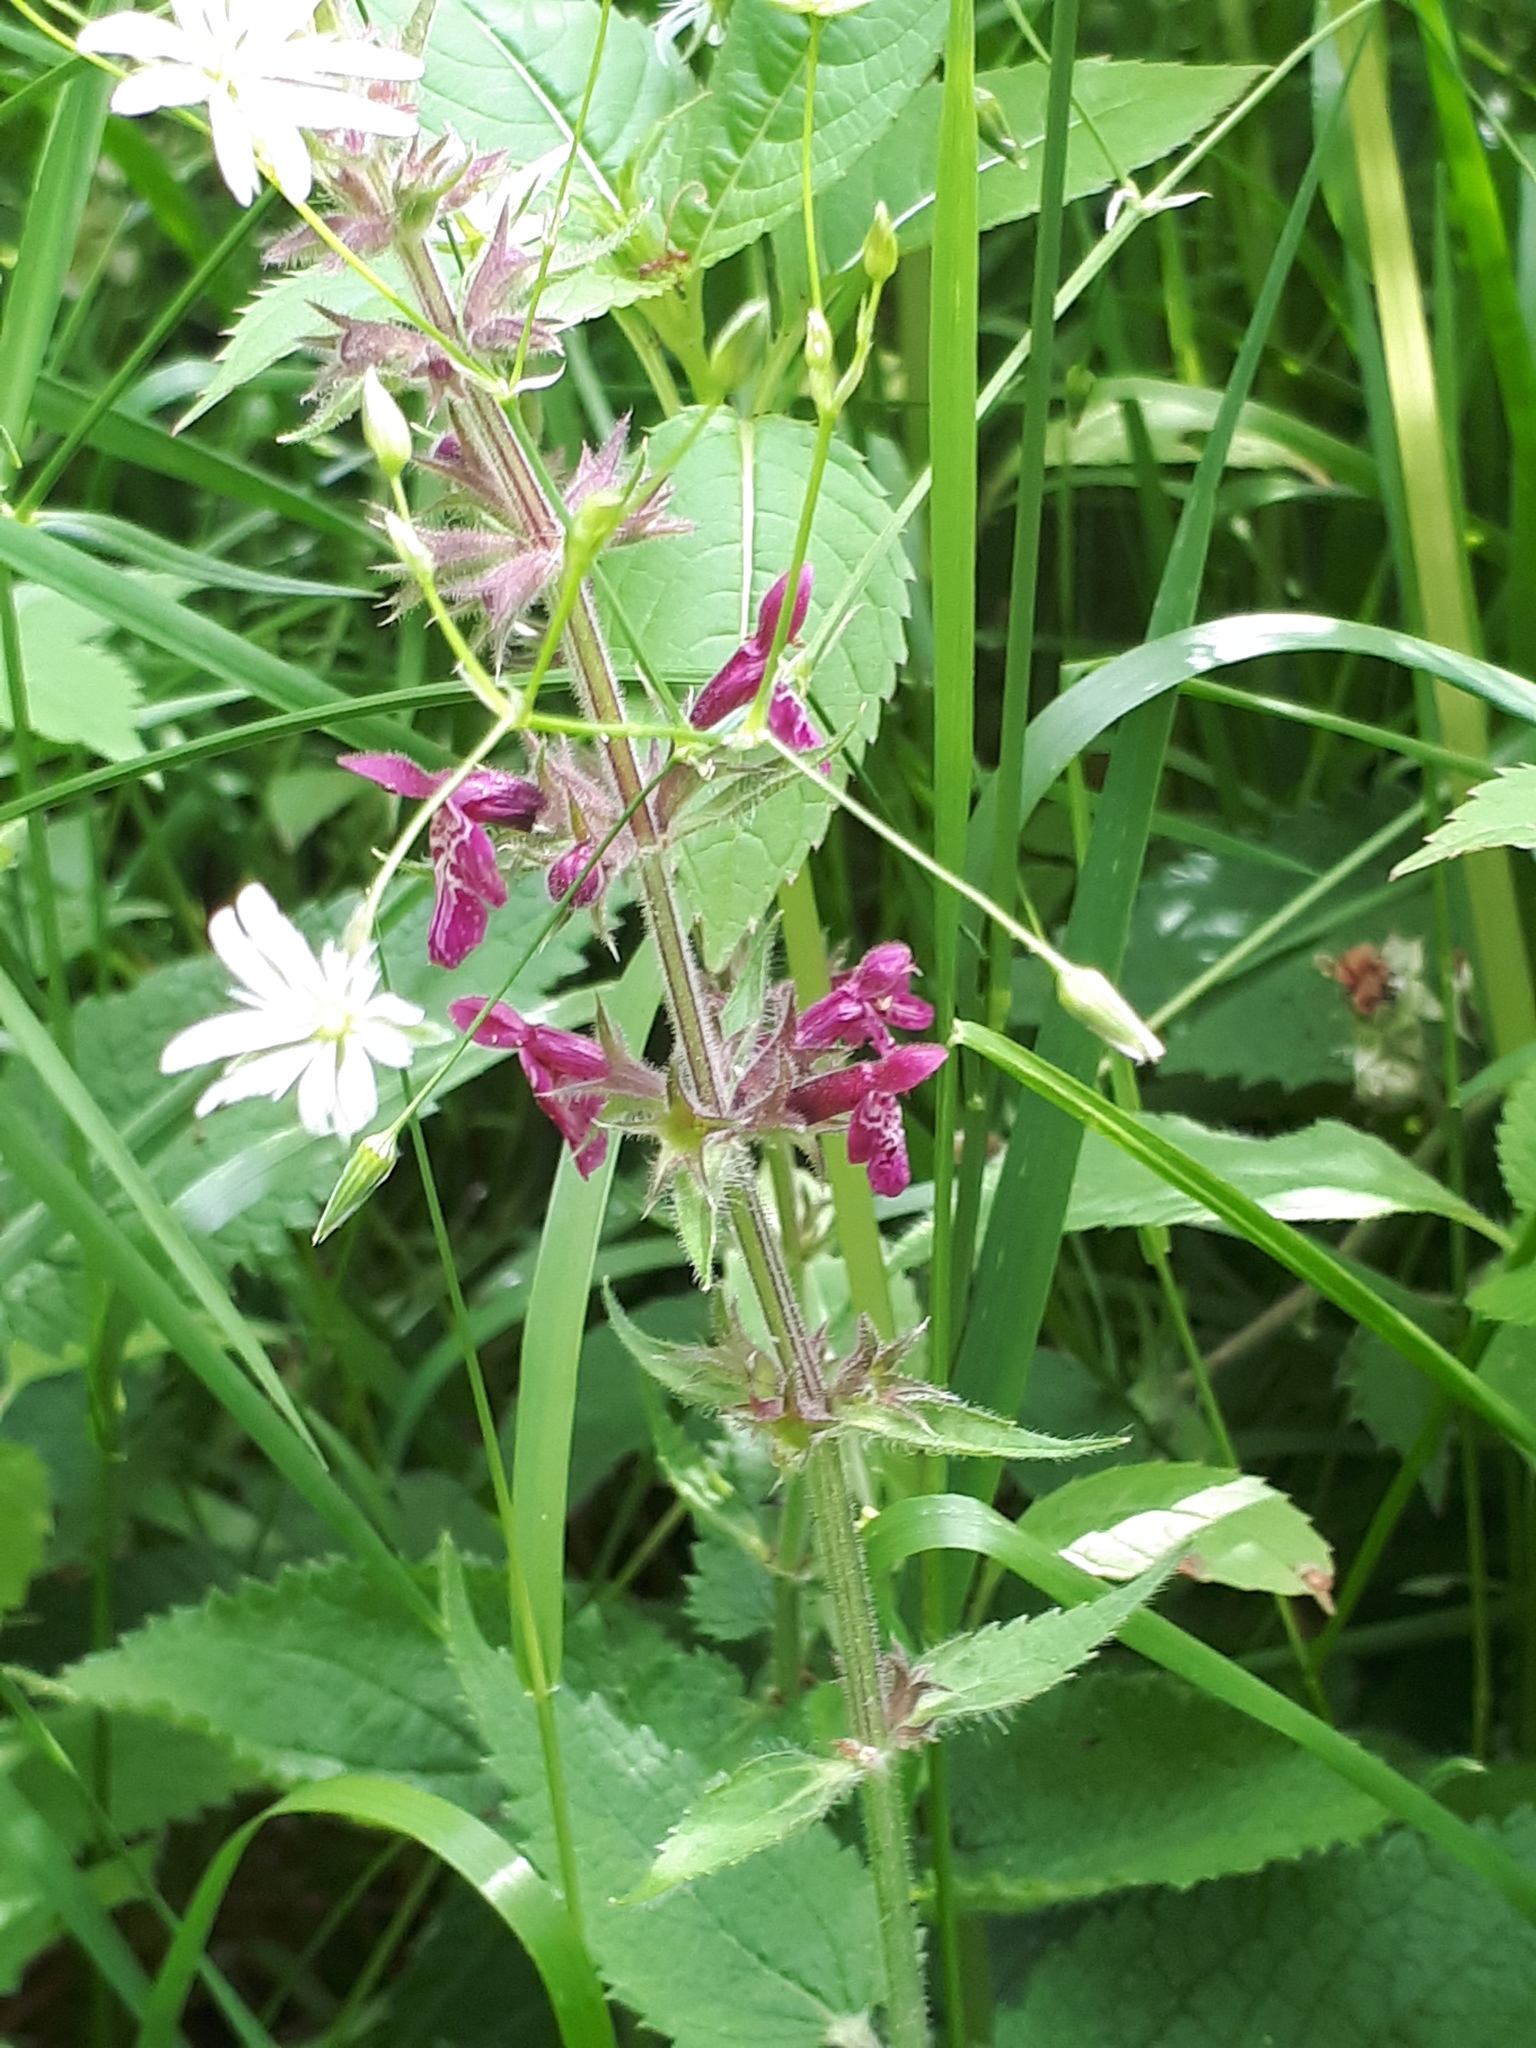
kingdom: Plantae
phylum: Tracheophyta
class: Magnoliopsida
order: Lamiales
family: Lamiaceae
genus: Stachys
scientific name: Stachys sylvatica
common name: Hedge woundwort
